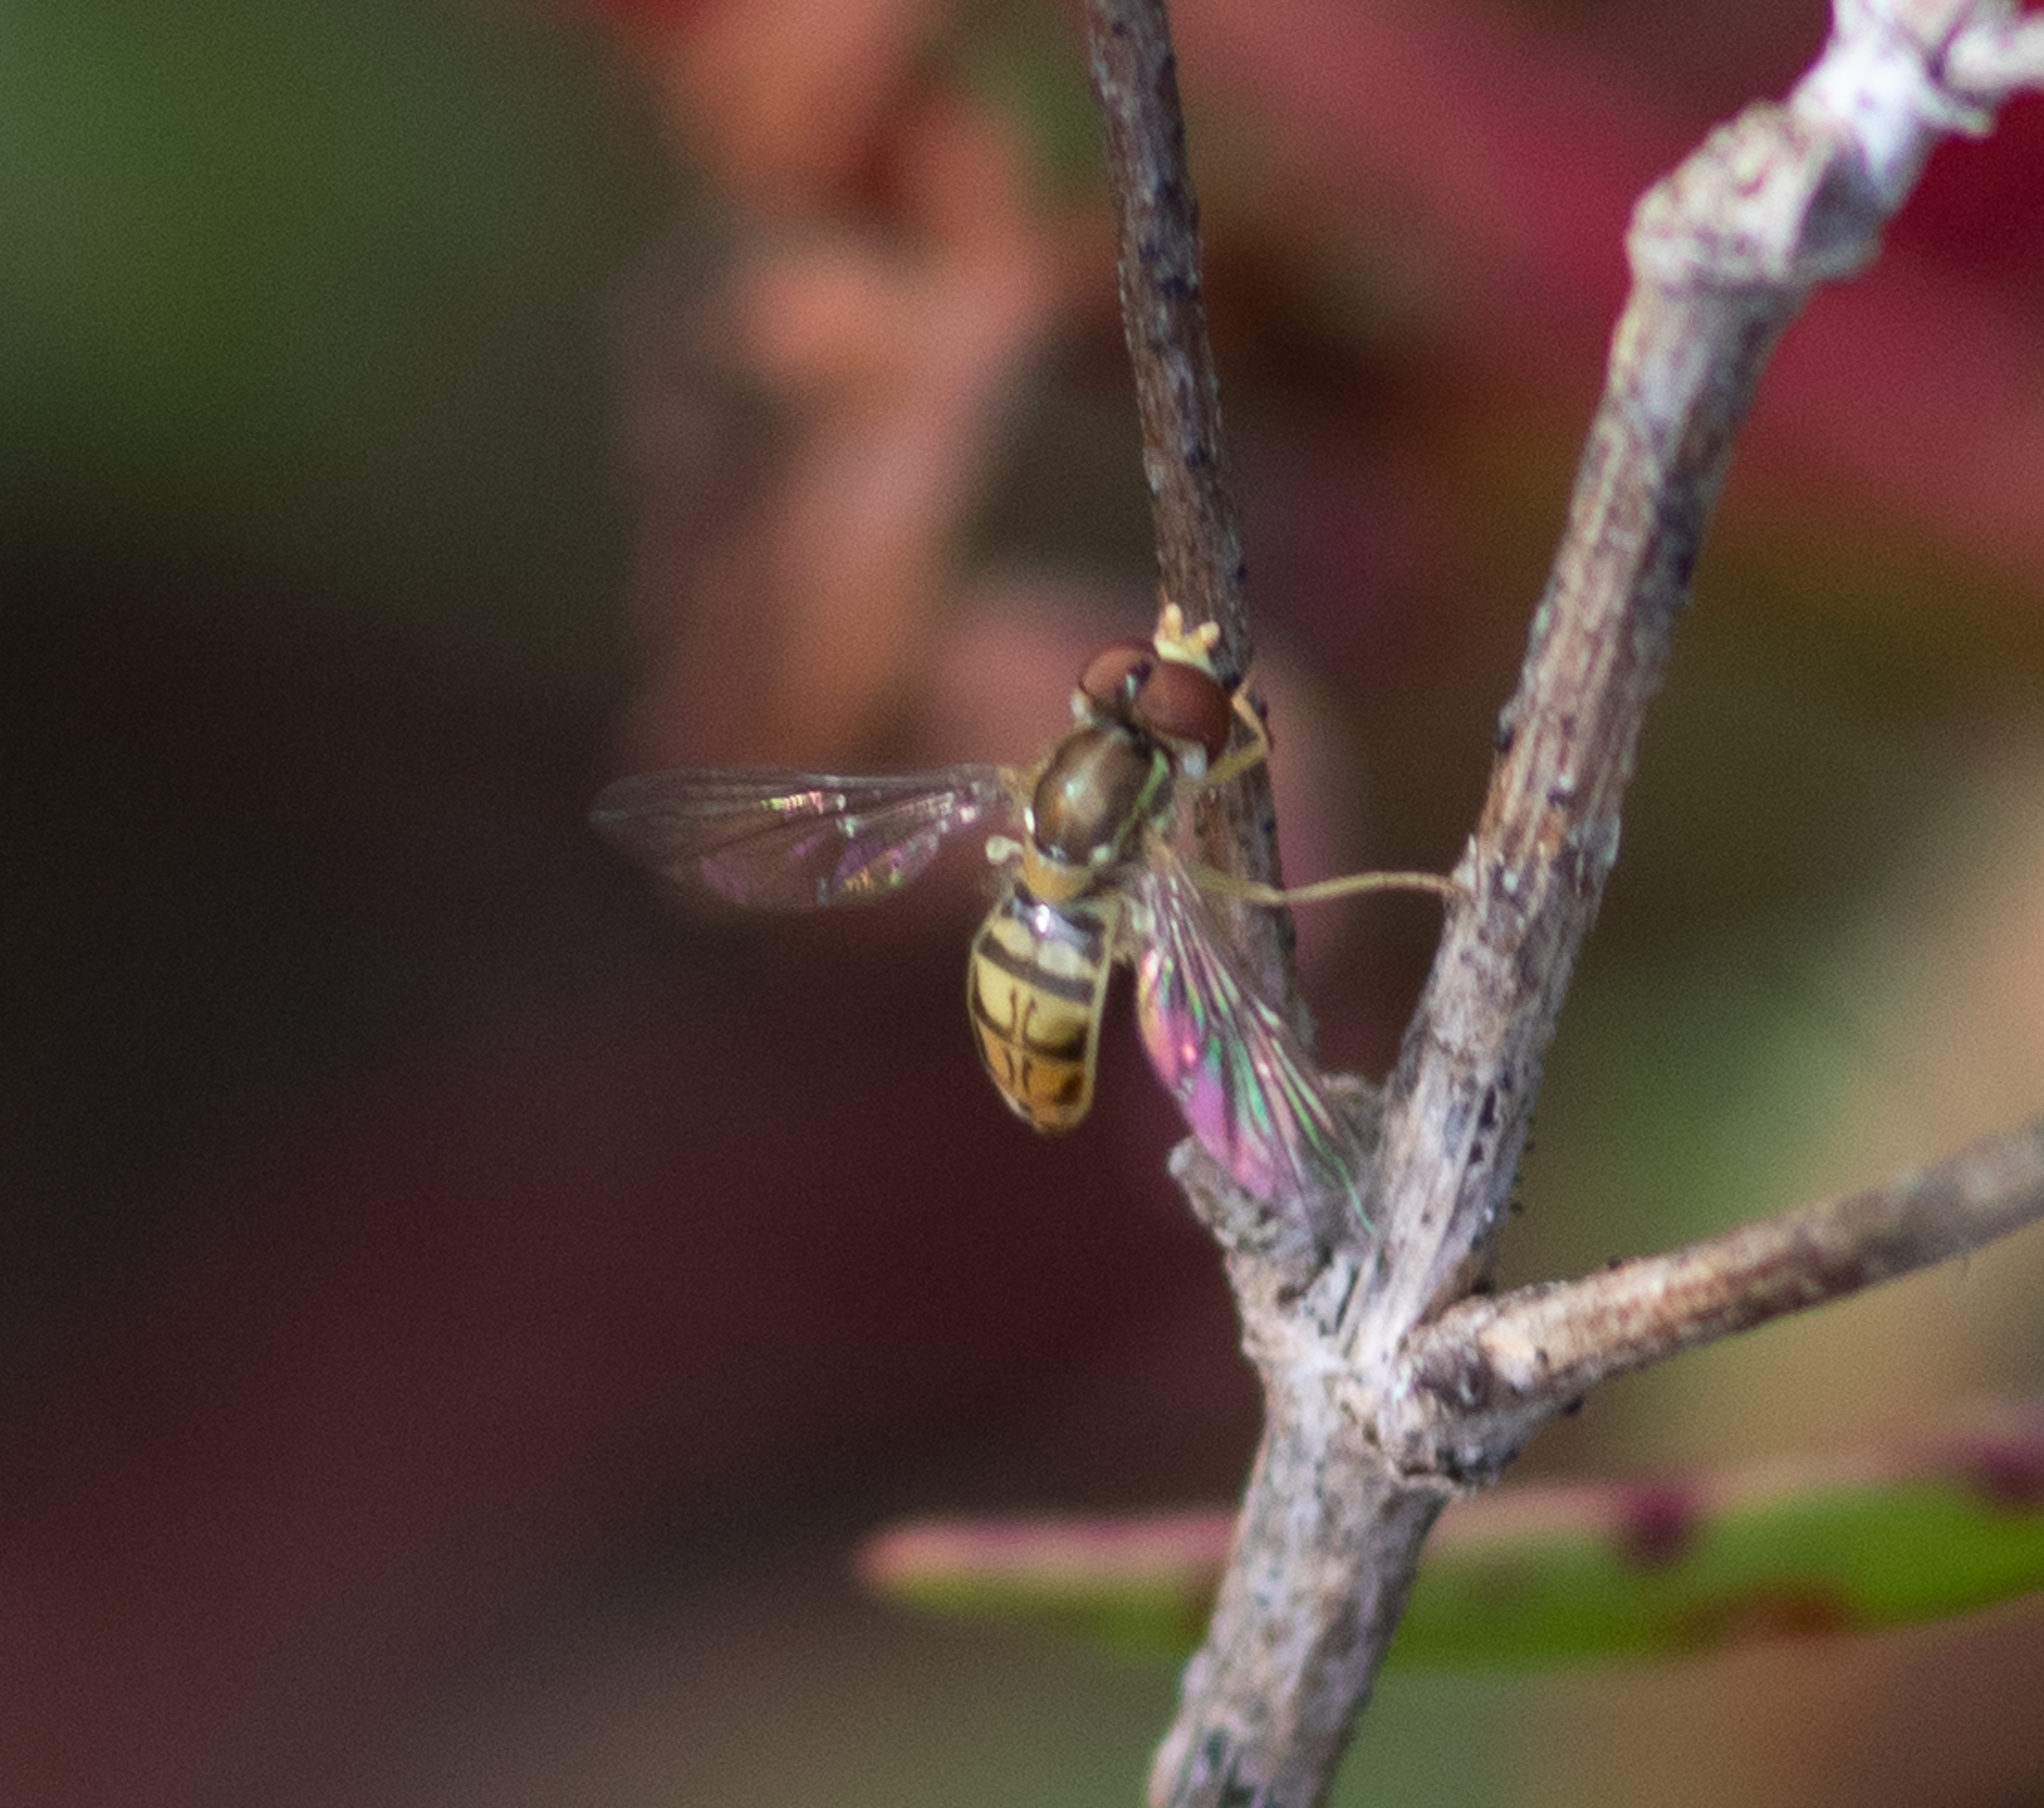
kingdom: Animalia
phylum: Arthropoda
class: Insecta
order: Diptera
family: Syrphidae
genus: Toxomerus
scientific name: Toxomerus marginatus
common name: Syrphid fly
